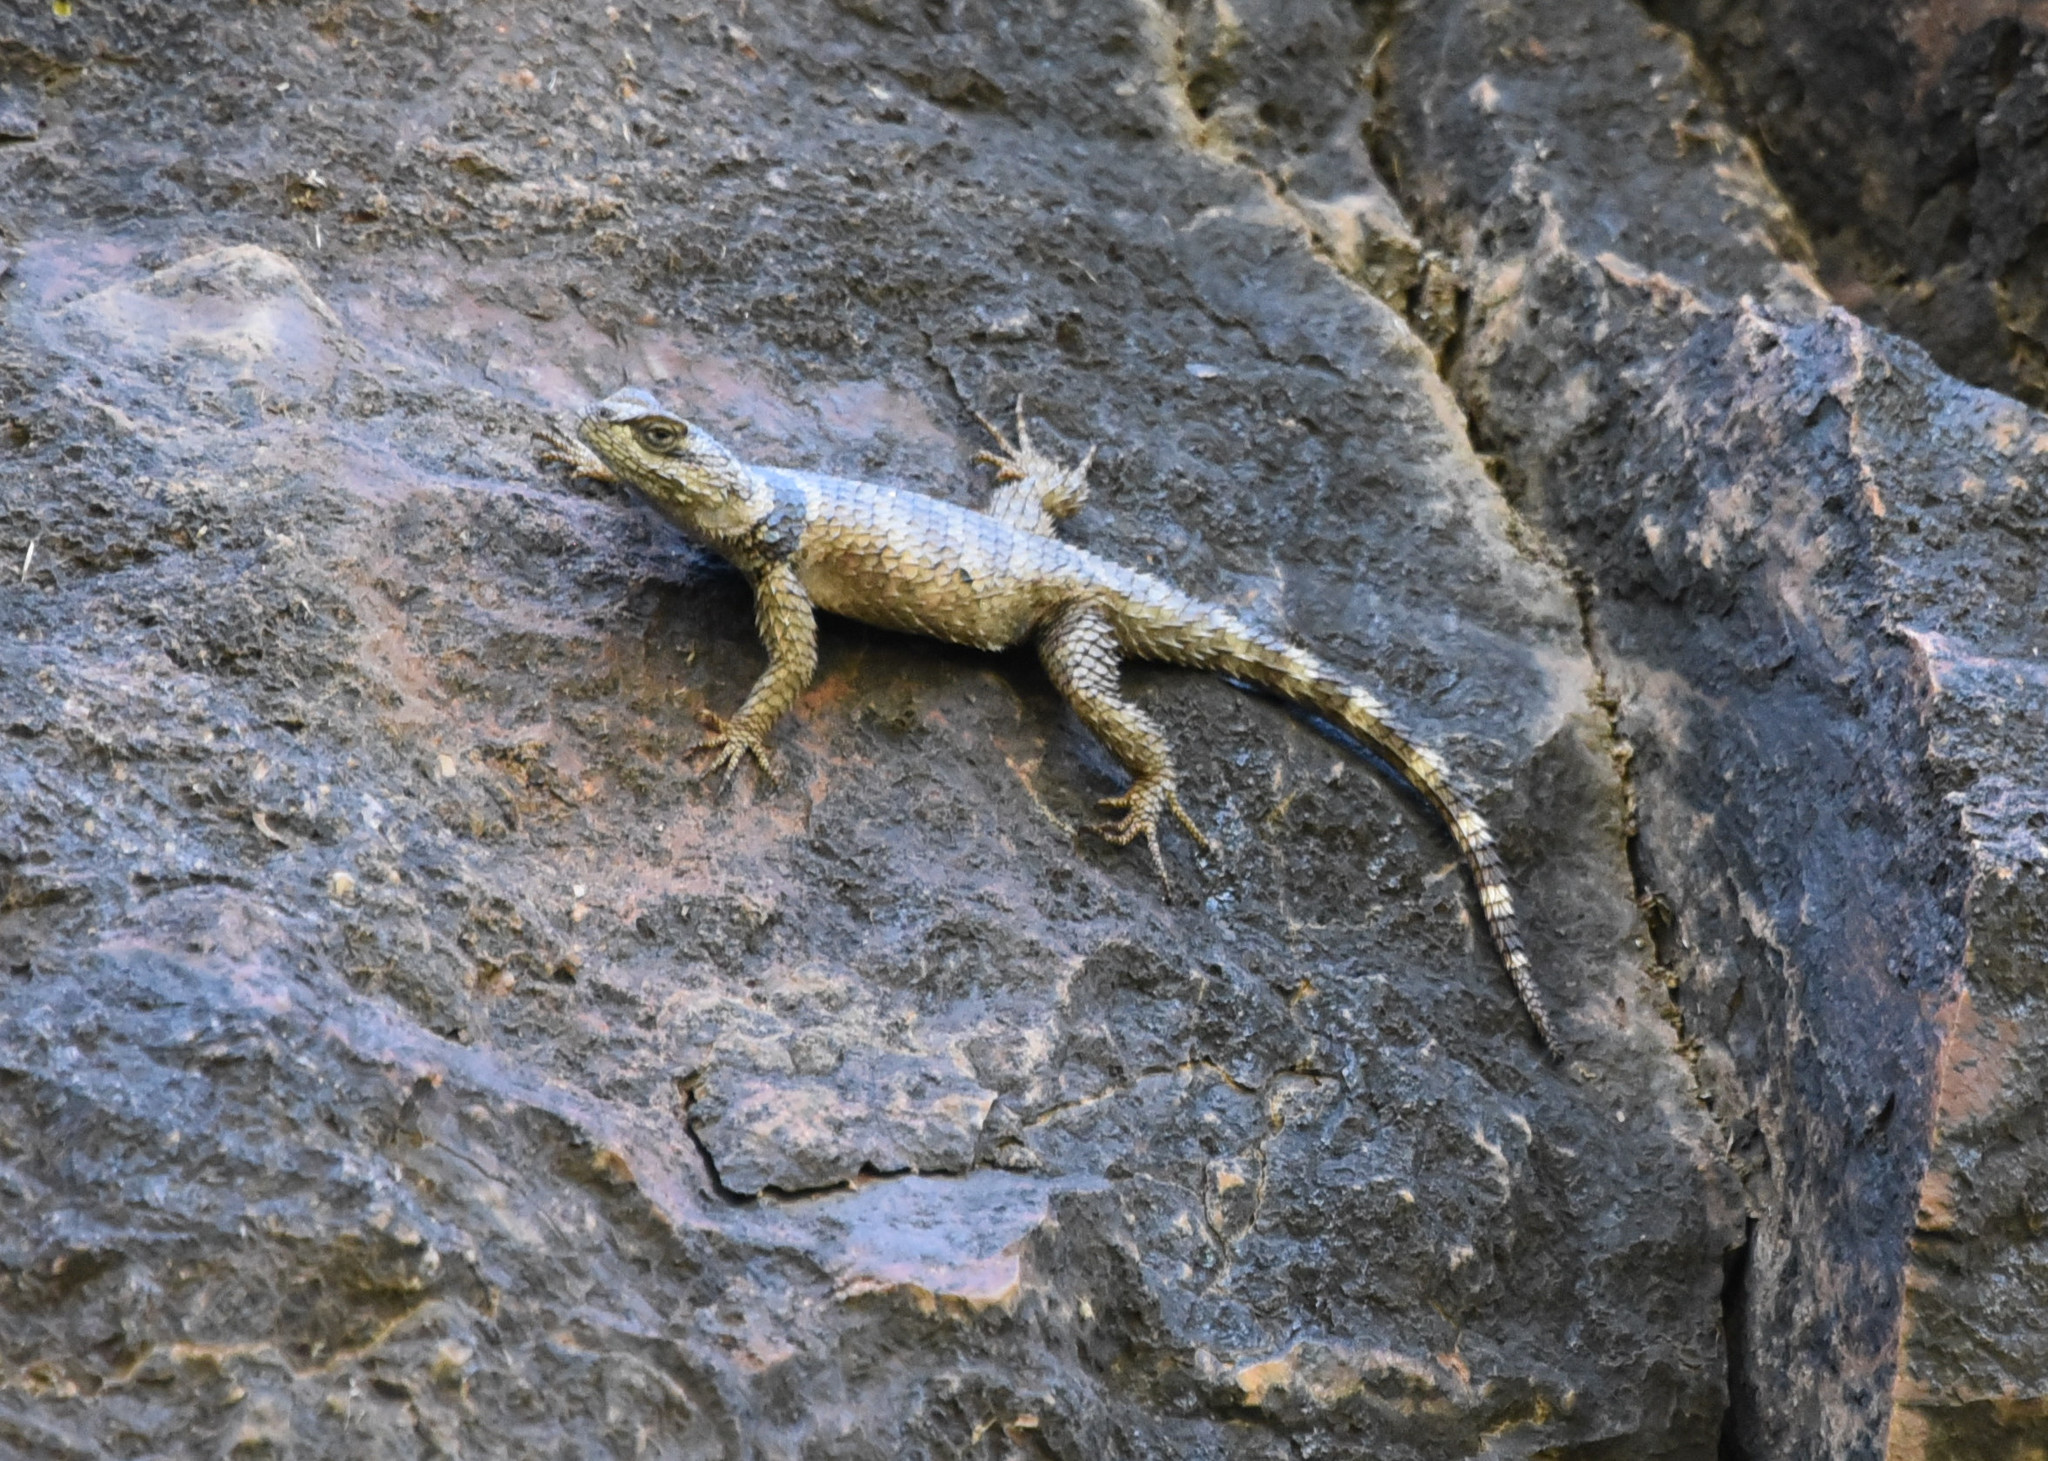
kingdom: Animalia
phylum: Chordata
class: Squamata
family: Phrynosomatidae
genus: Sceloporus
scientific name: Sceloporus poinsettii
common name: Crevice spiny lizard
